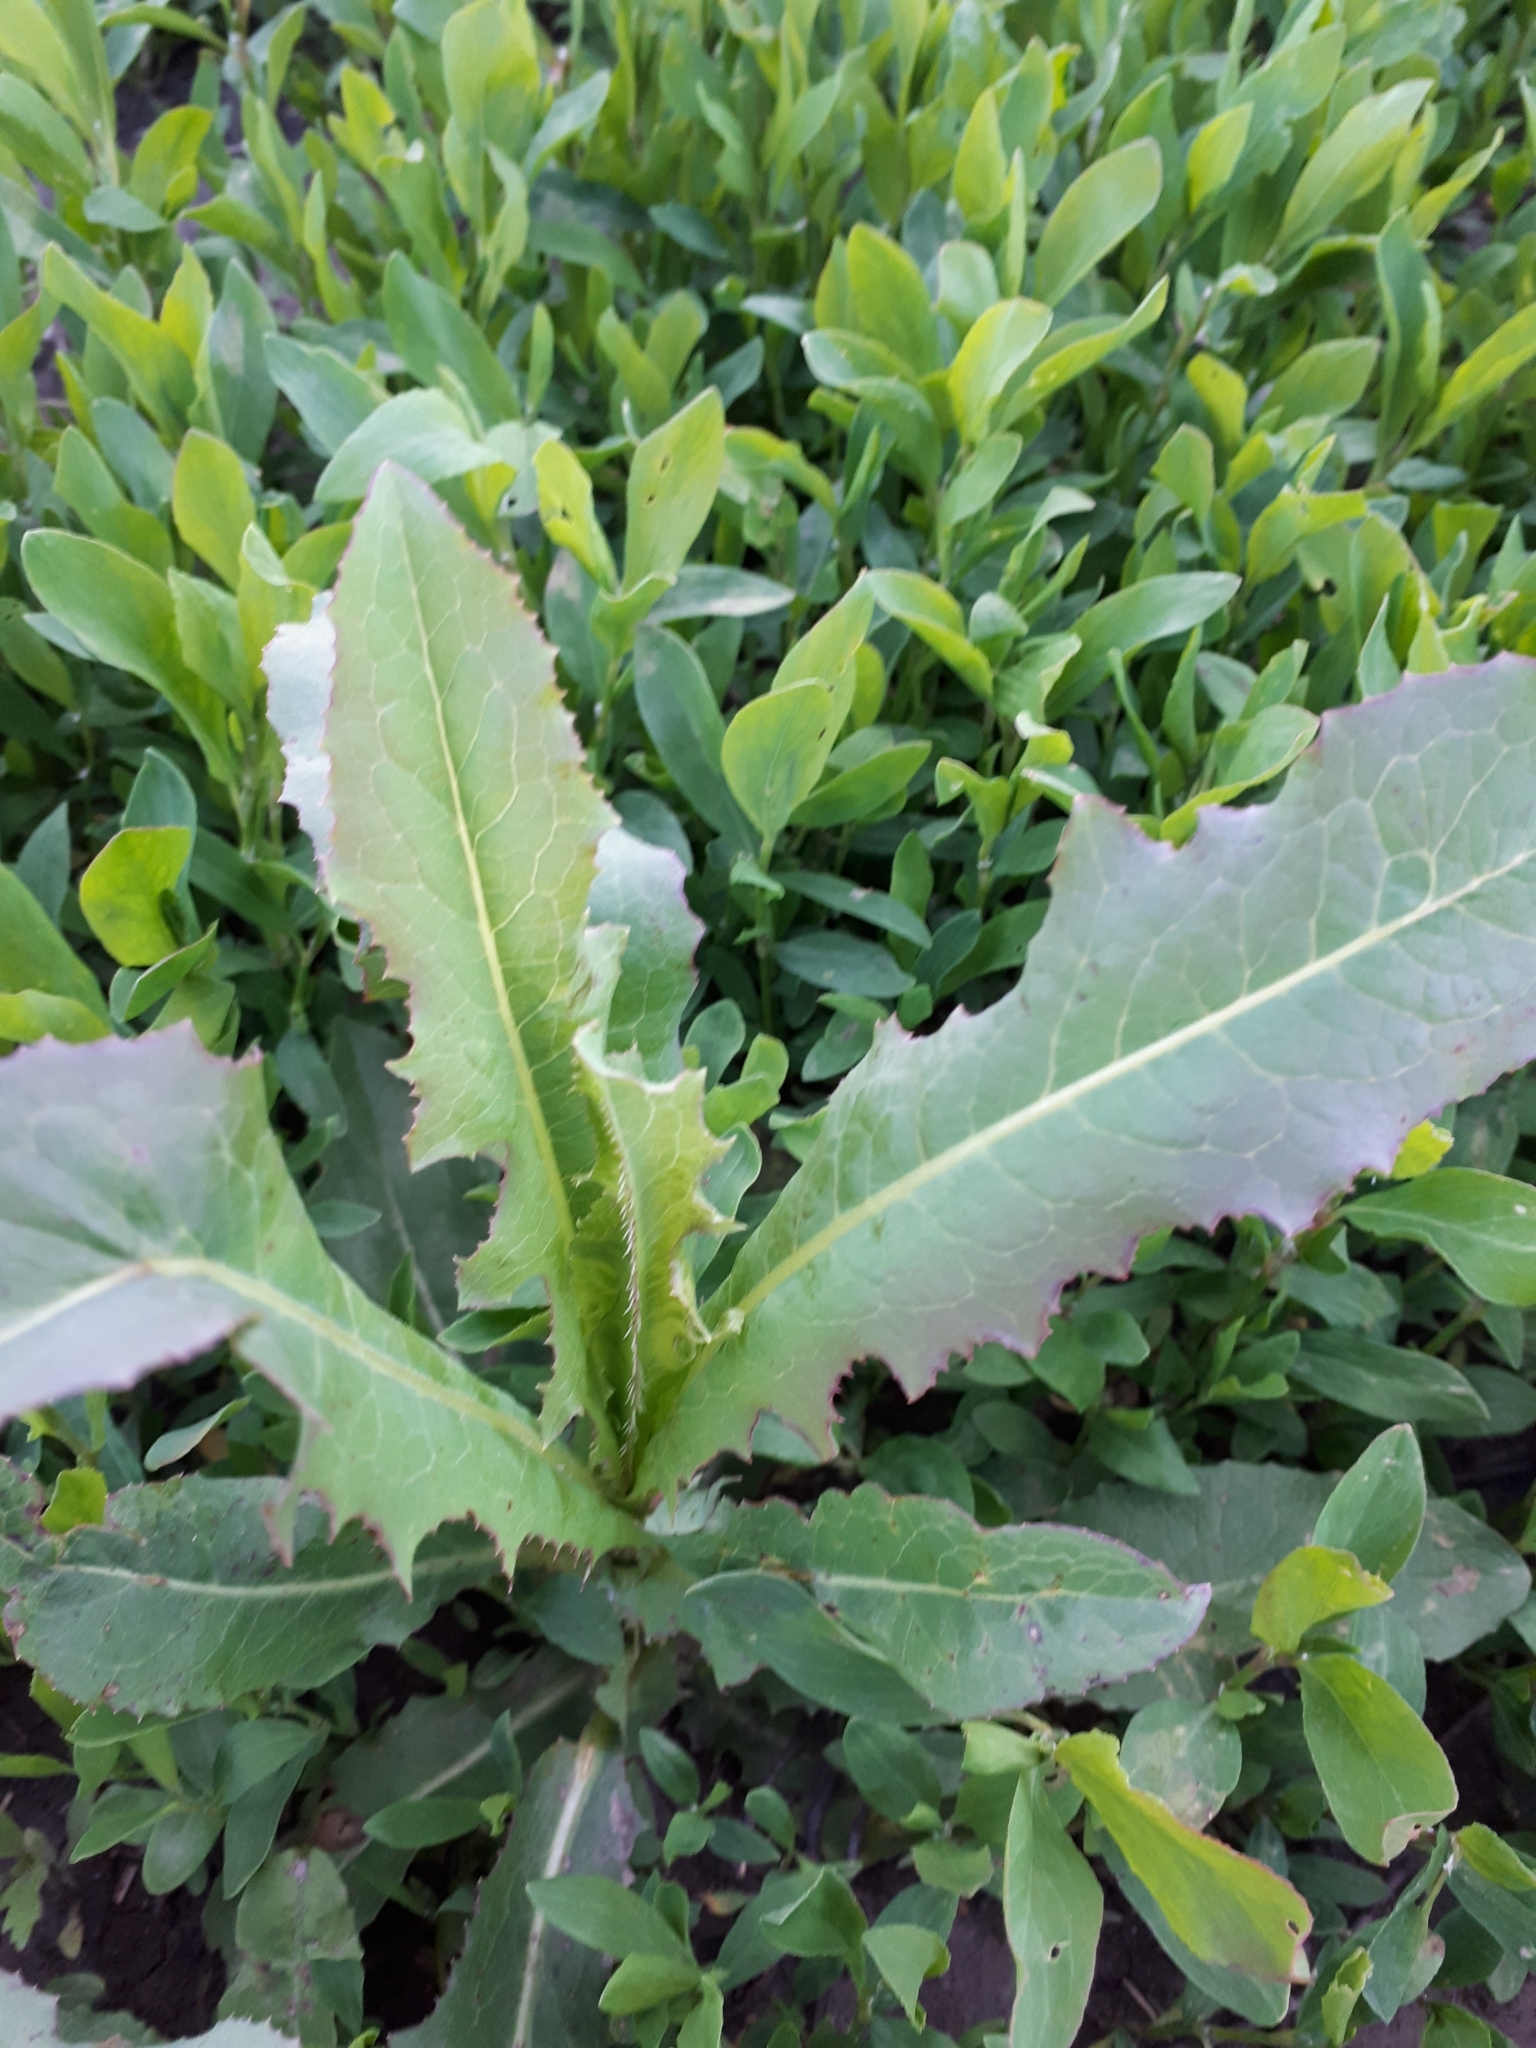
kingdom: Plantae
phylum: Tracheophyta
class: Magnoliopsida
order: Asterales
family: Asteraceae
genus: Lactuca
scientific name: Lactuca serriola
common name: Prickly lettuce
